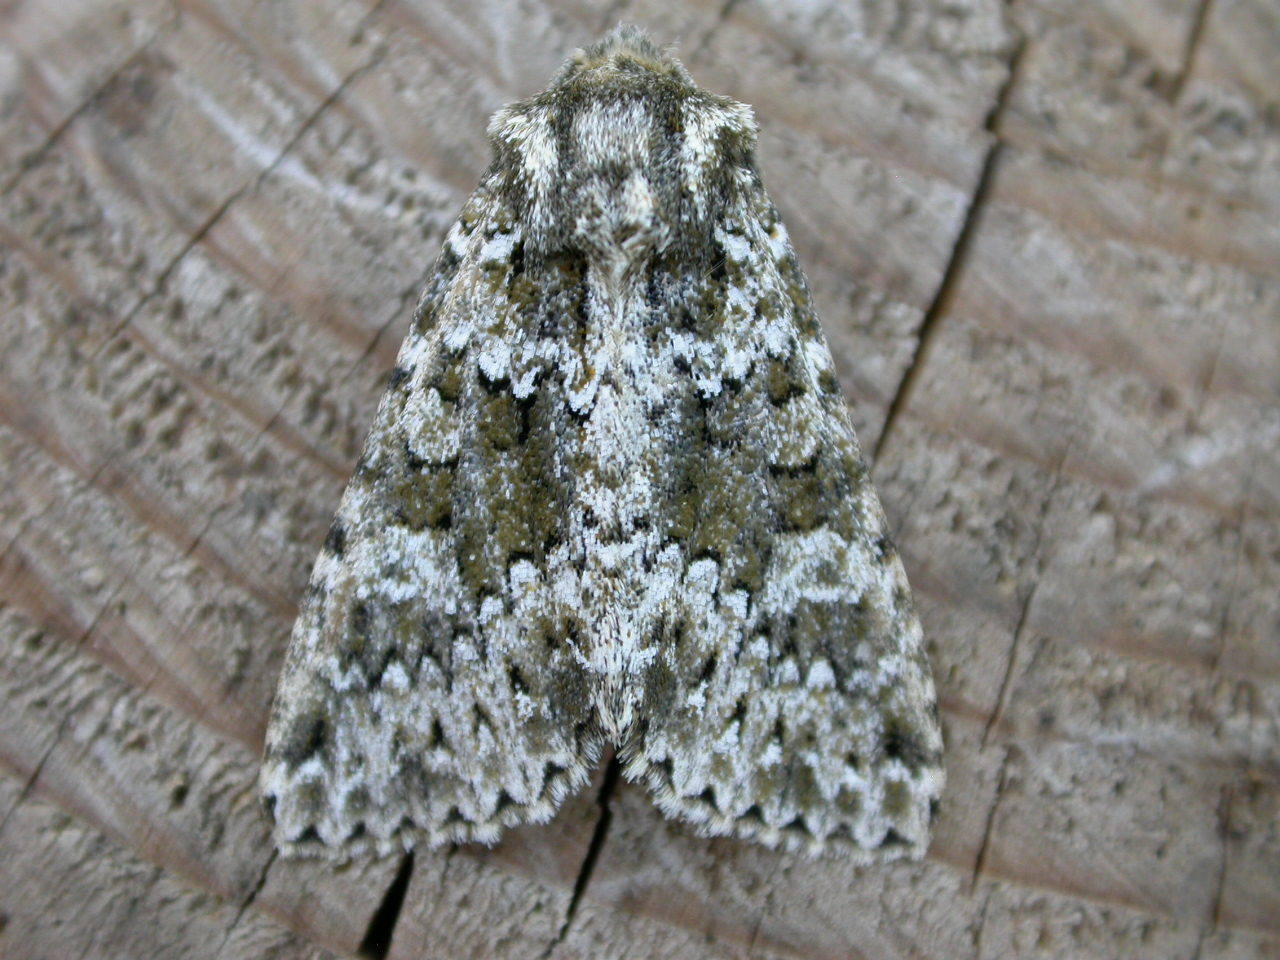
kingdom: Animalia
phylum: Arthropoda
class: Insecta
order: Lepidoptera
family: Noctuidae
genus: Polymixis
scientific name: Polymixis polymita
